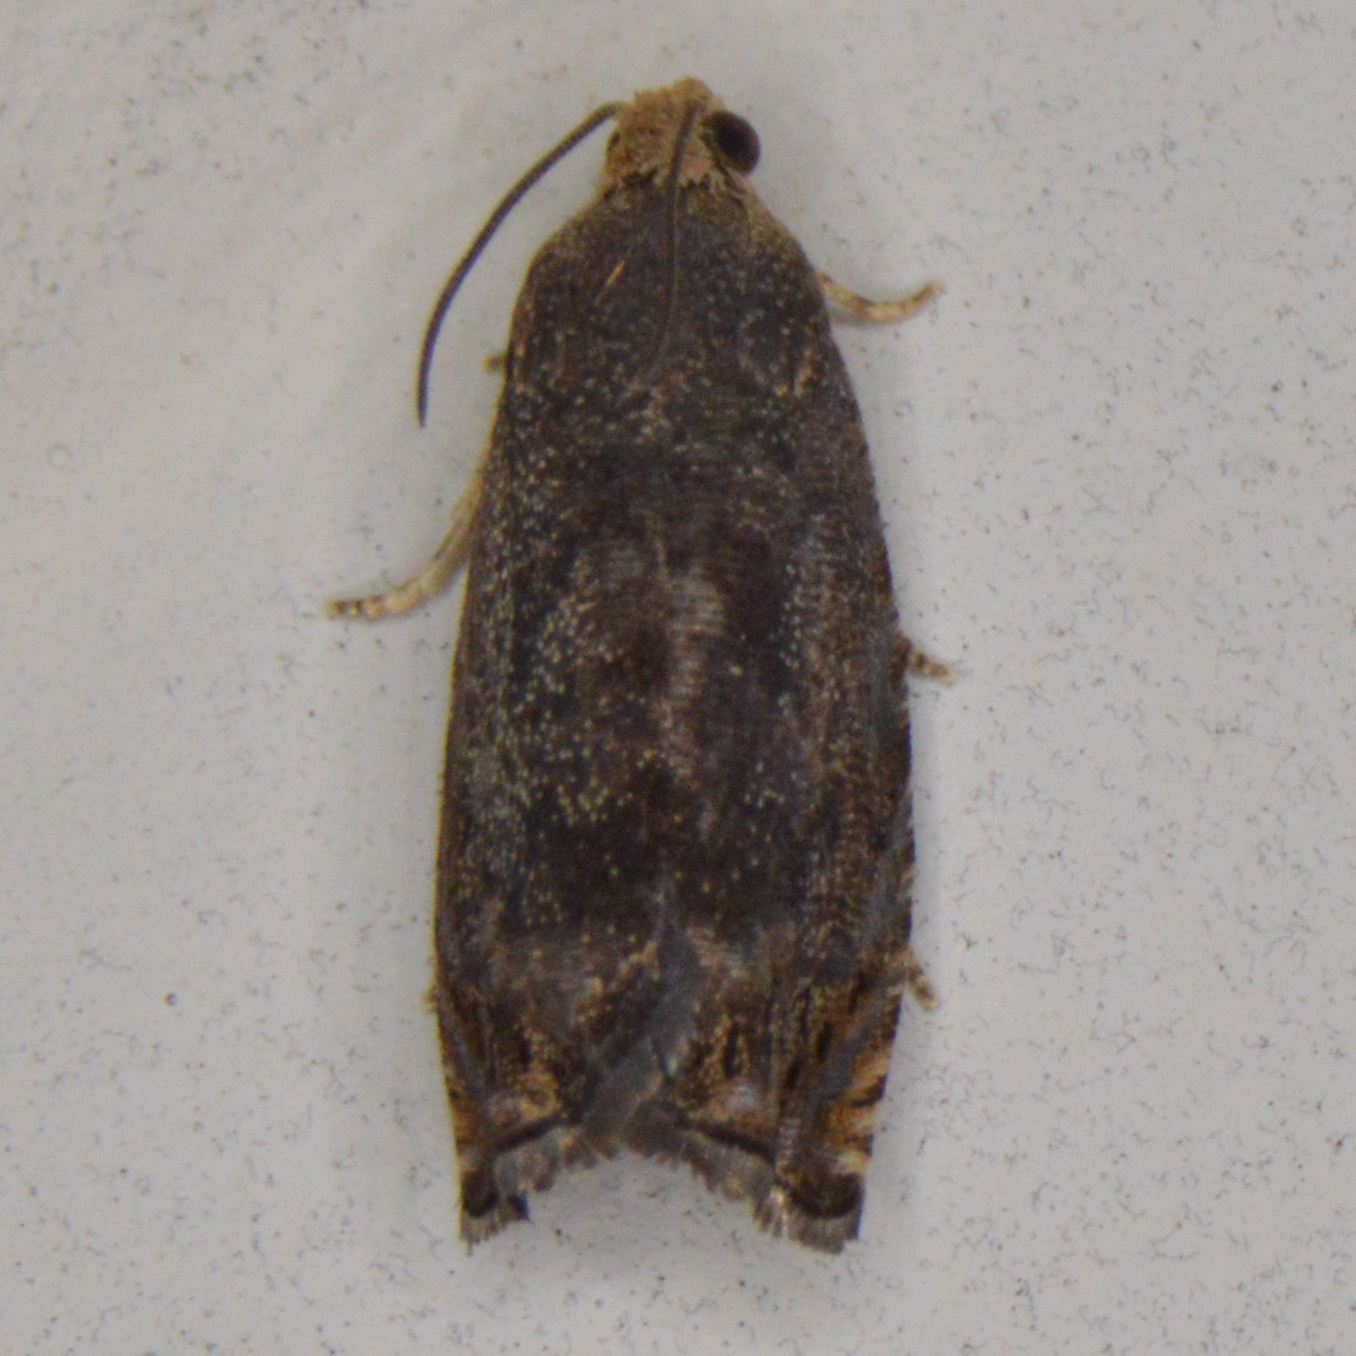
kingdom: Animalia
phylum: Arthropoda
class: Insecta
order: Lepidoptera
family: Tortricidae
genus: Cydia
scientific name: Cydia caryana
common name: Hickory shuckworm moth
